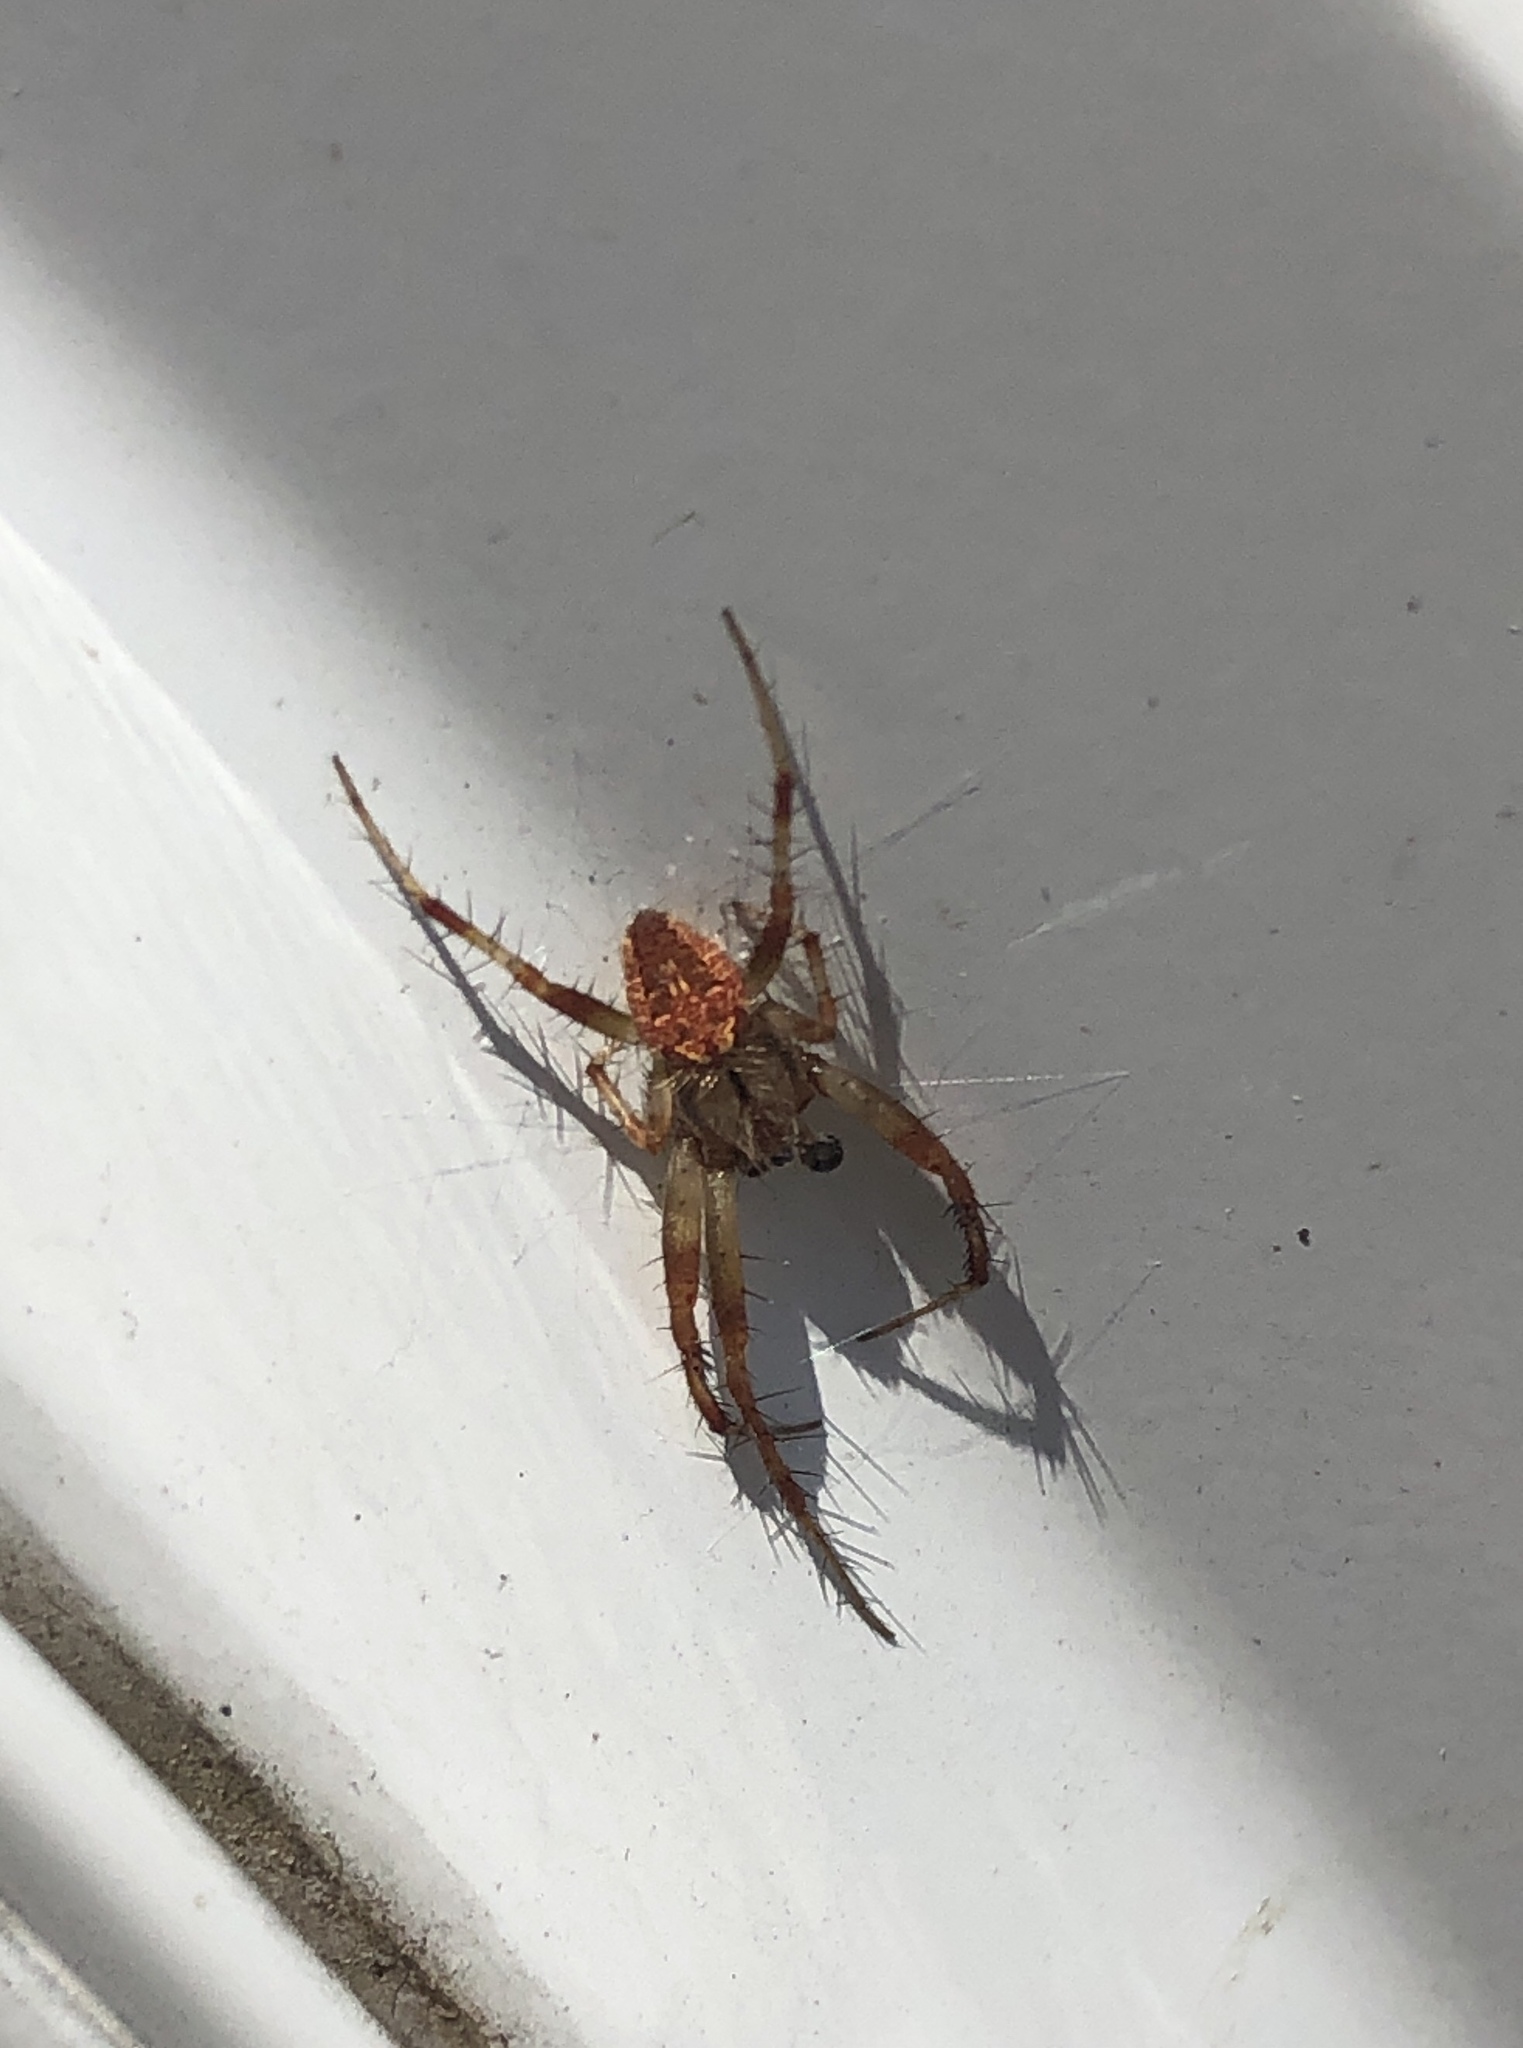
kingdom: Animalia
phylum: Arthropoda
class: Arachnida
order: Araneae
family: Araneidae
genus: Neoscona
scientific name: Neoscona arabesca
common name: Orb weavers
